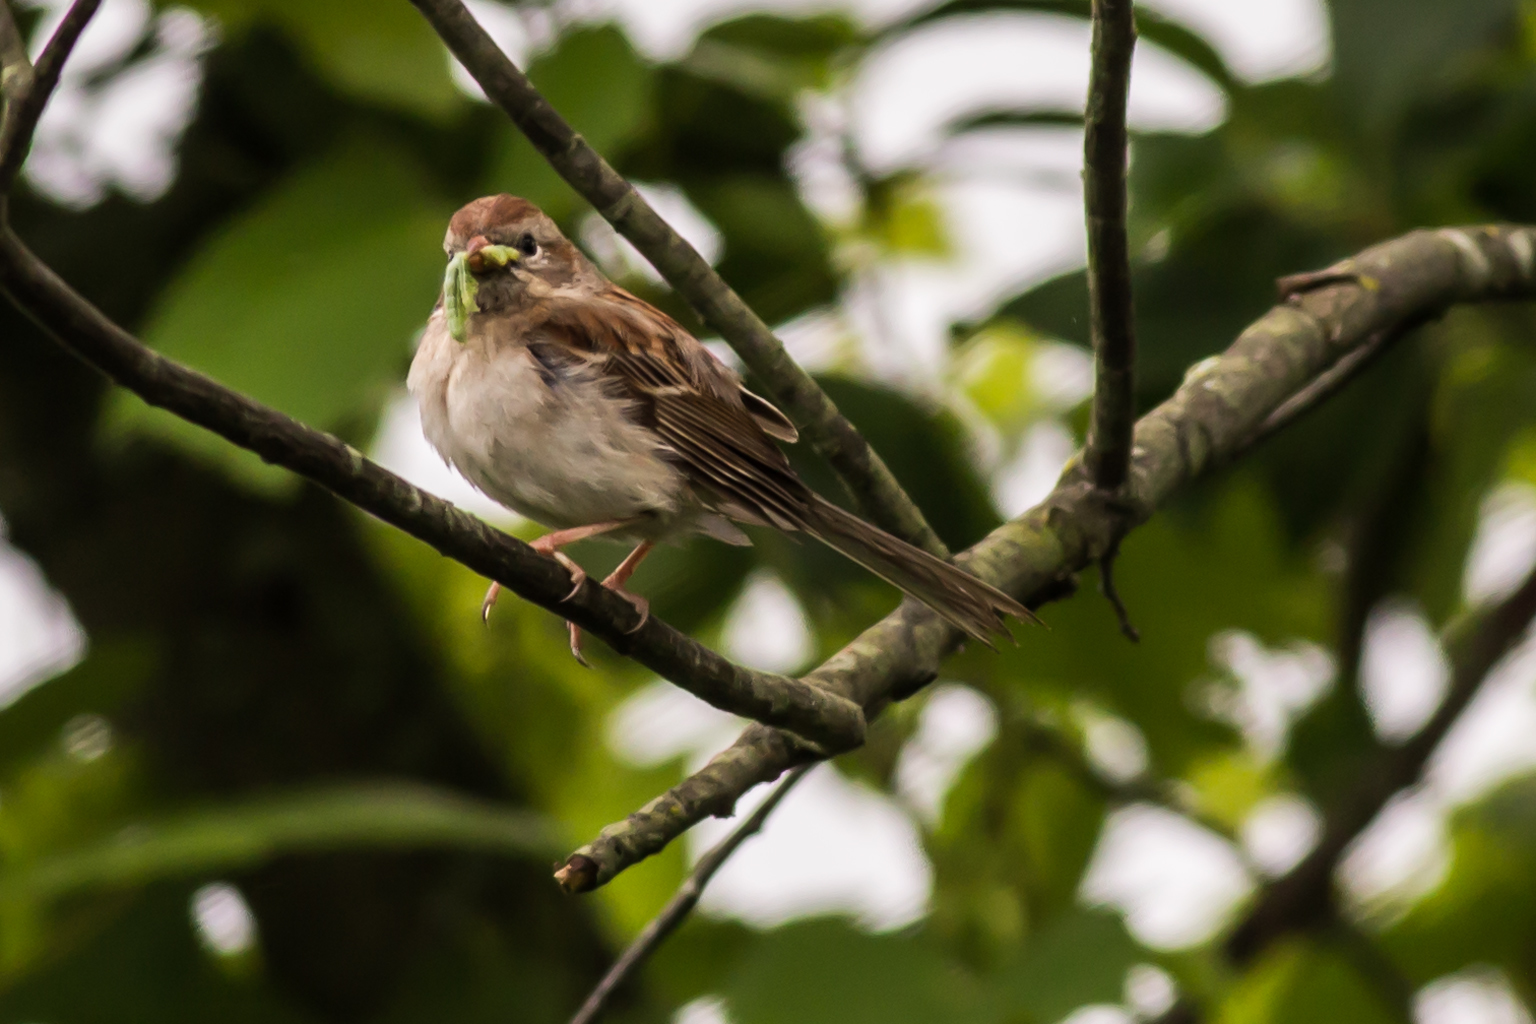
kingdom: Animalia
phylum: Chordata
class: Aves
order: Passeriformes
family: Passerellidae
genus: Spizella
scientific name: Spizella pusilla
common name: Field sparrow
